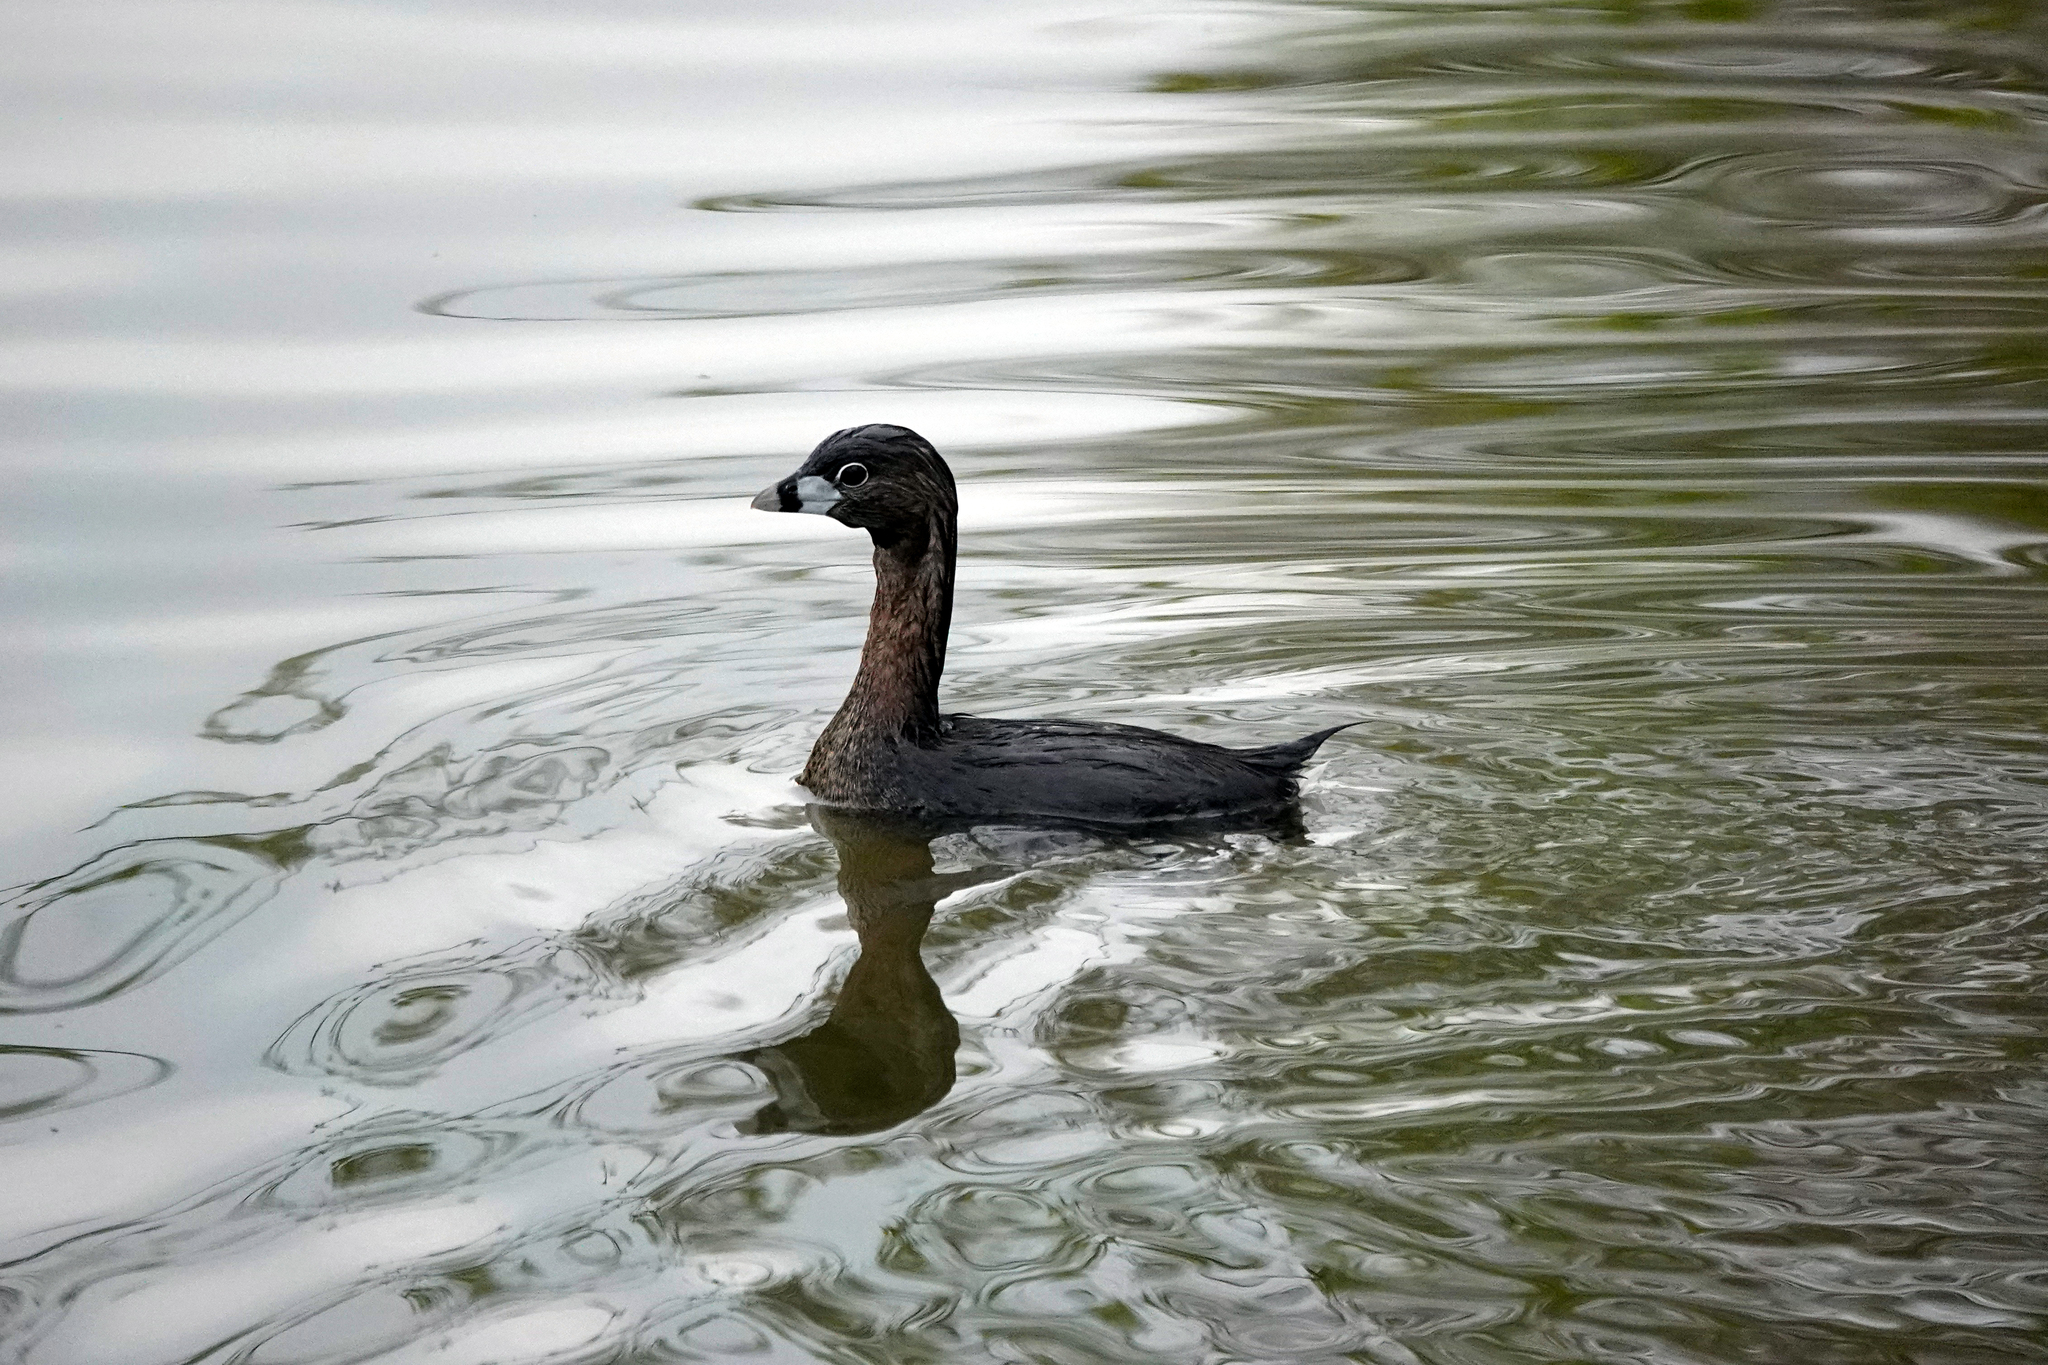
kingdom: Animalia
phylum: Chordata
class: Aves
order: Podicipediformes
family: Podicipedidae
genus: Podilymbus
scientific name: Podilymbus podiceps
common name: Pied-billed grebe
